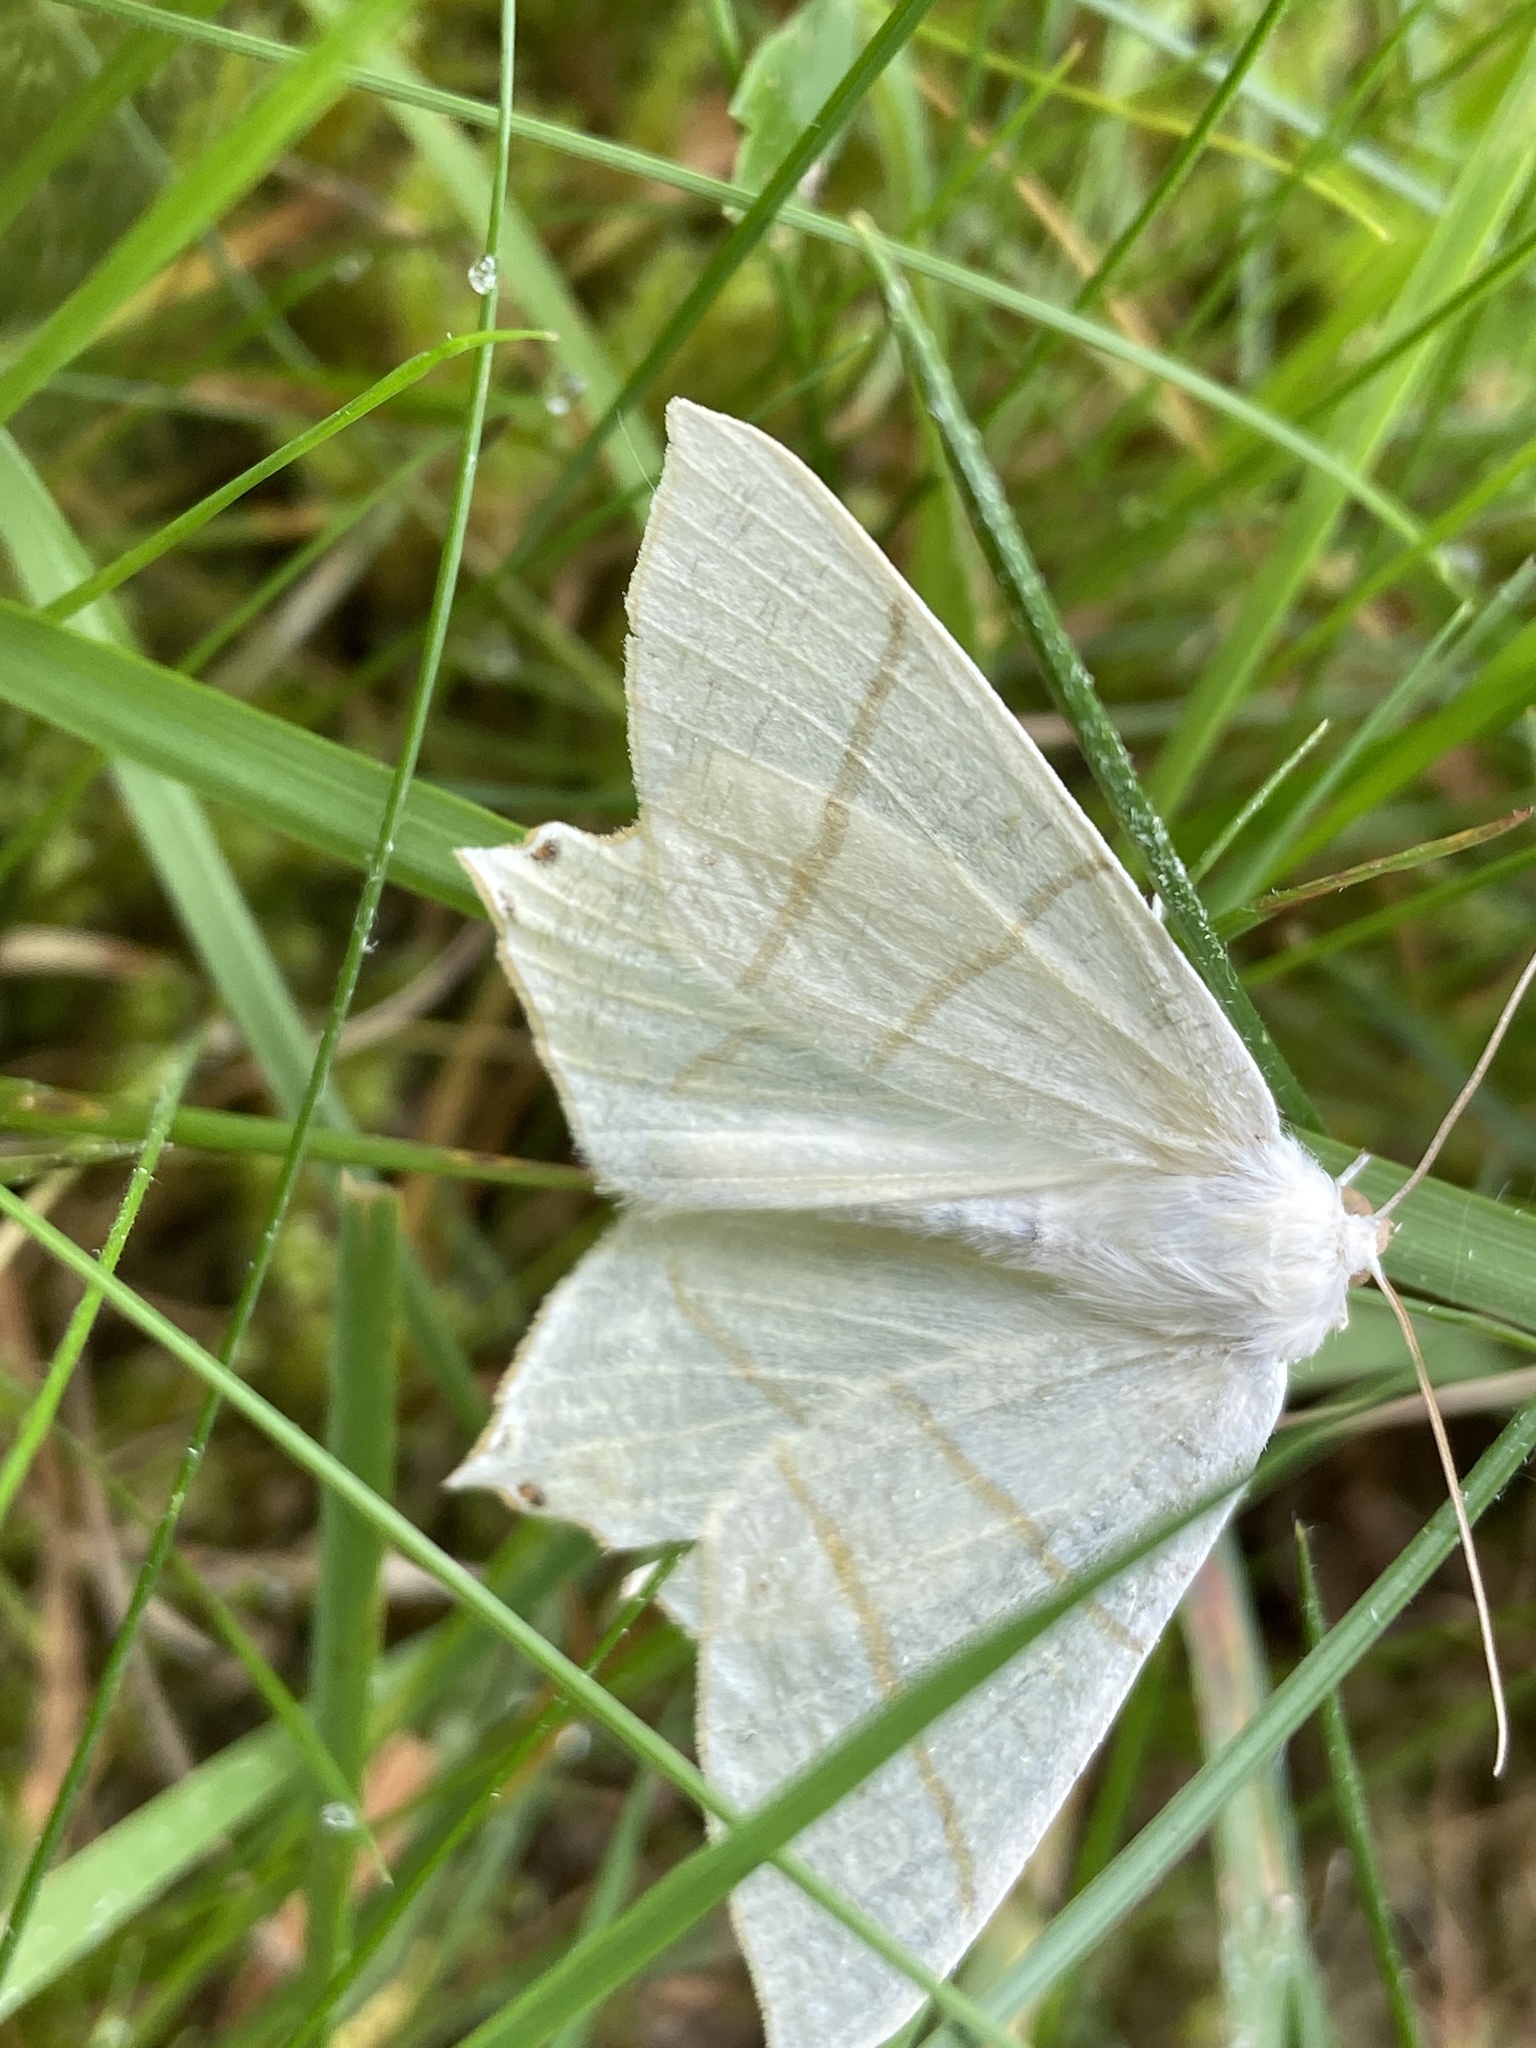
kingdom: Animalia
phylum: Arthropoda
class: Insecta
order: Lepidoptera
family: Geometridae
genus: Ourapteryx
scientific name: Ourapteryx sambucaria
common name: Swallow-tailed moth
